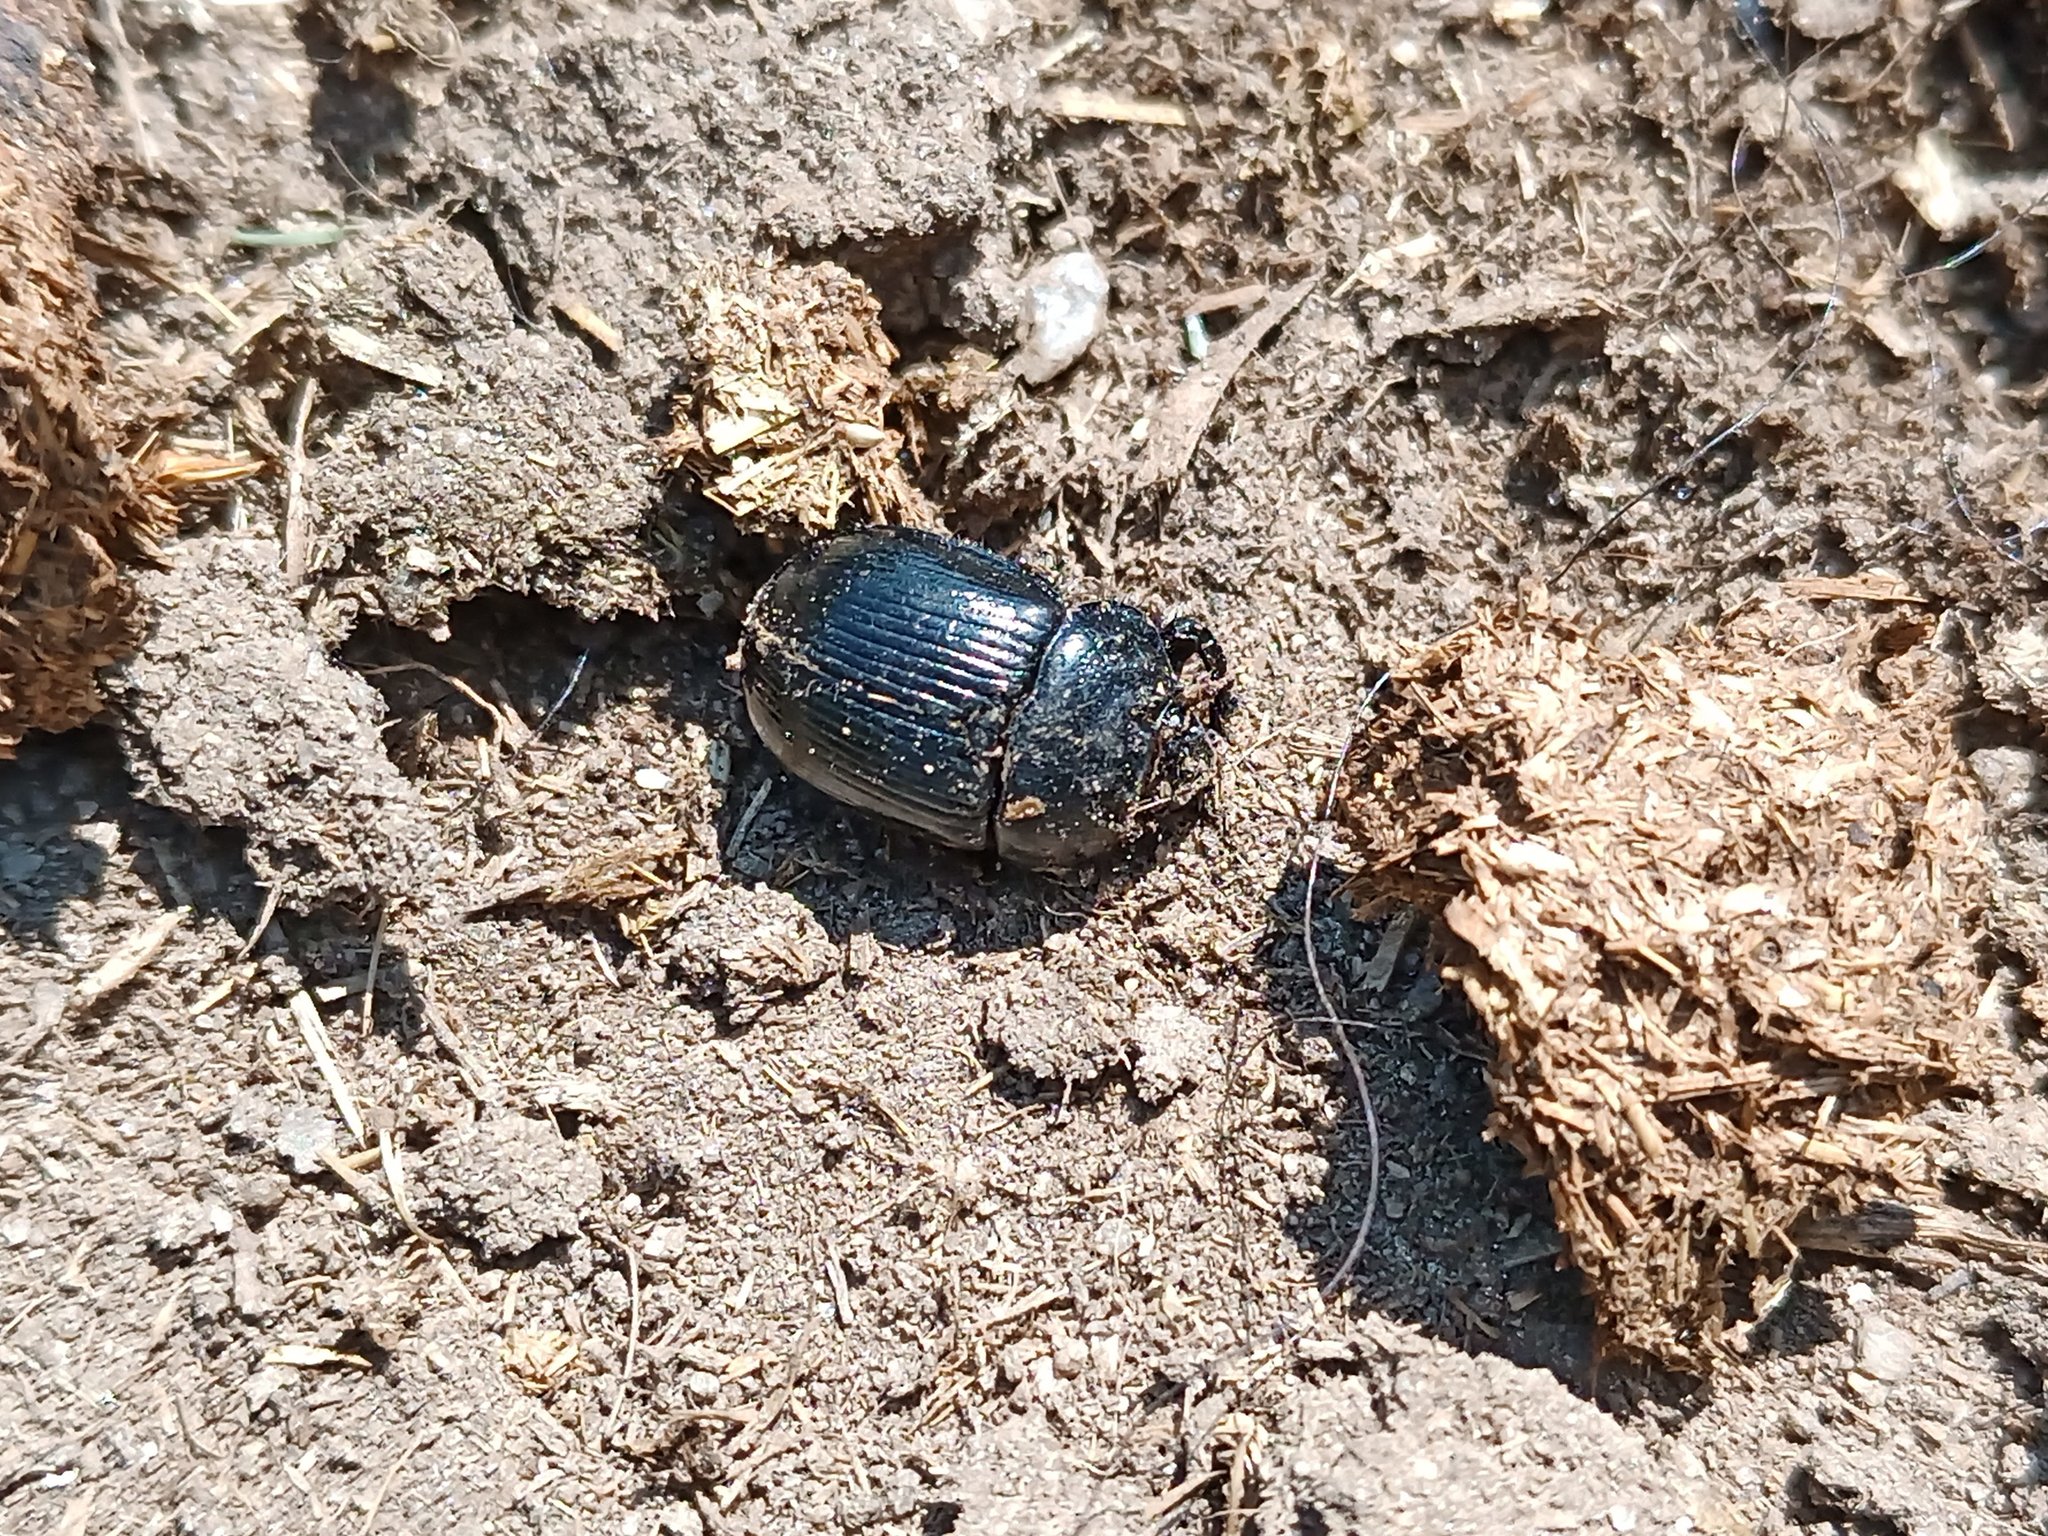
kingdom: Animalia
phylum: Arthropoda
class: Insecta
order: Coleoptera
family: Geotrupidae
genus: Typhaeus
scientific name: Typhaeus typhoeus
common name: Minotaur beetle
